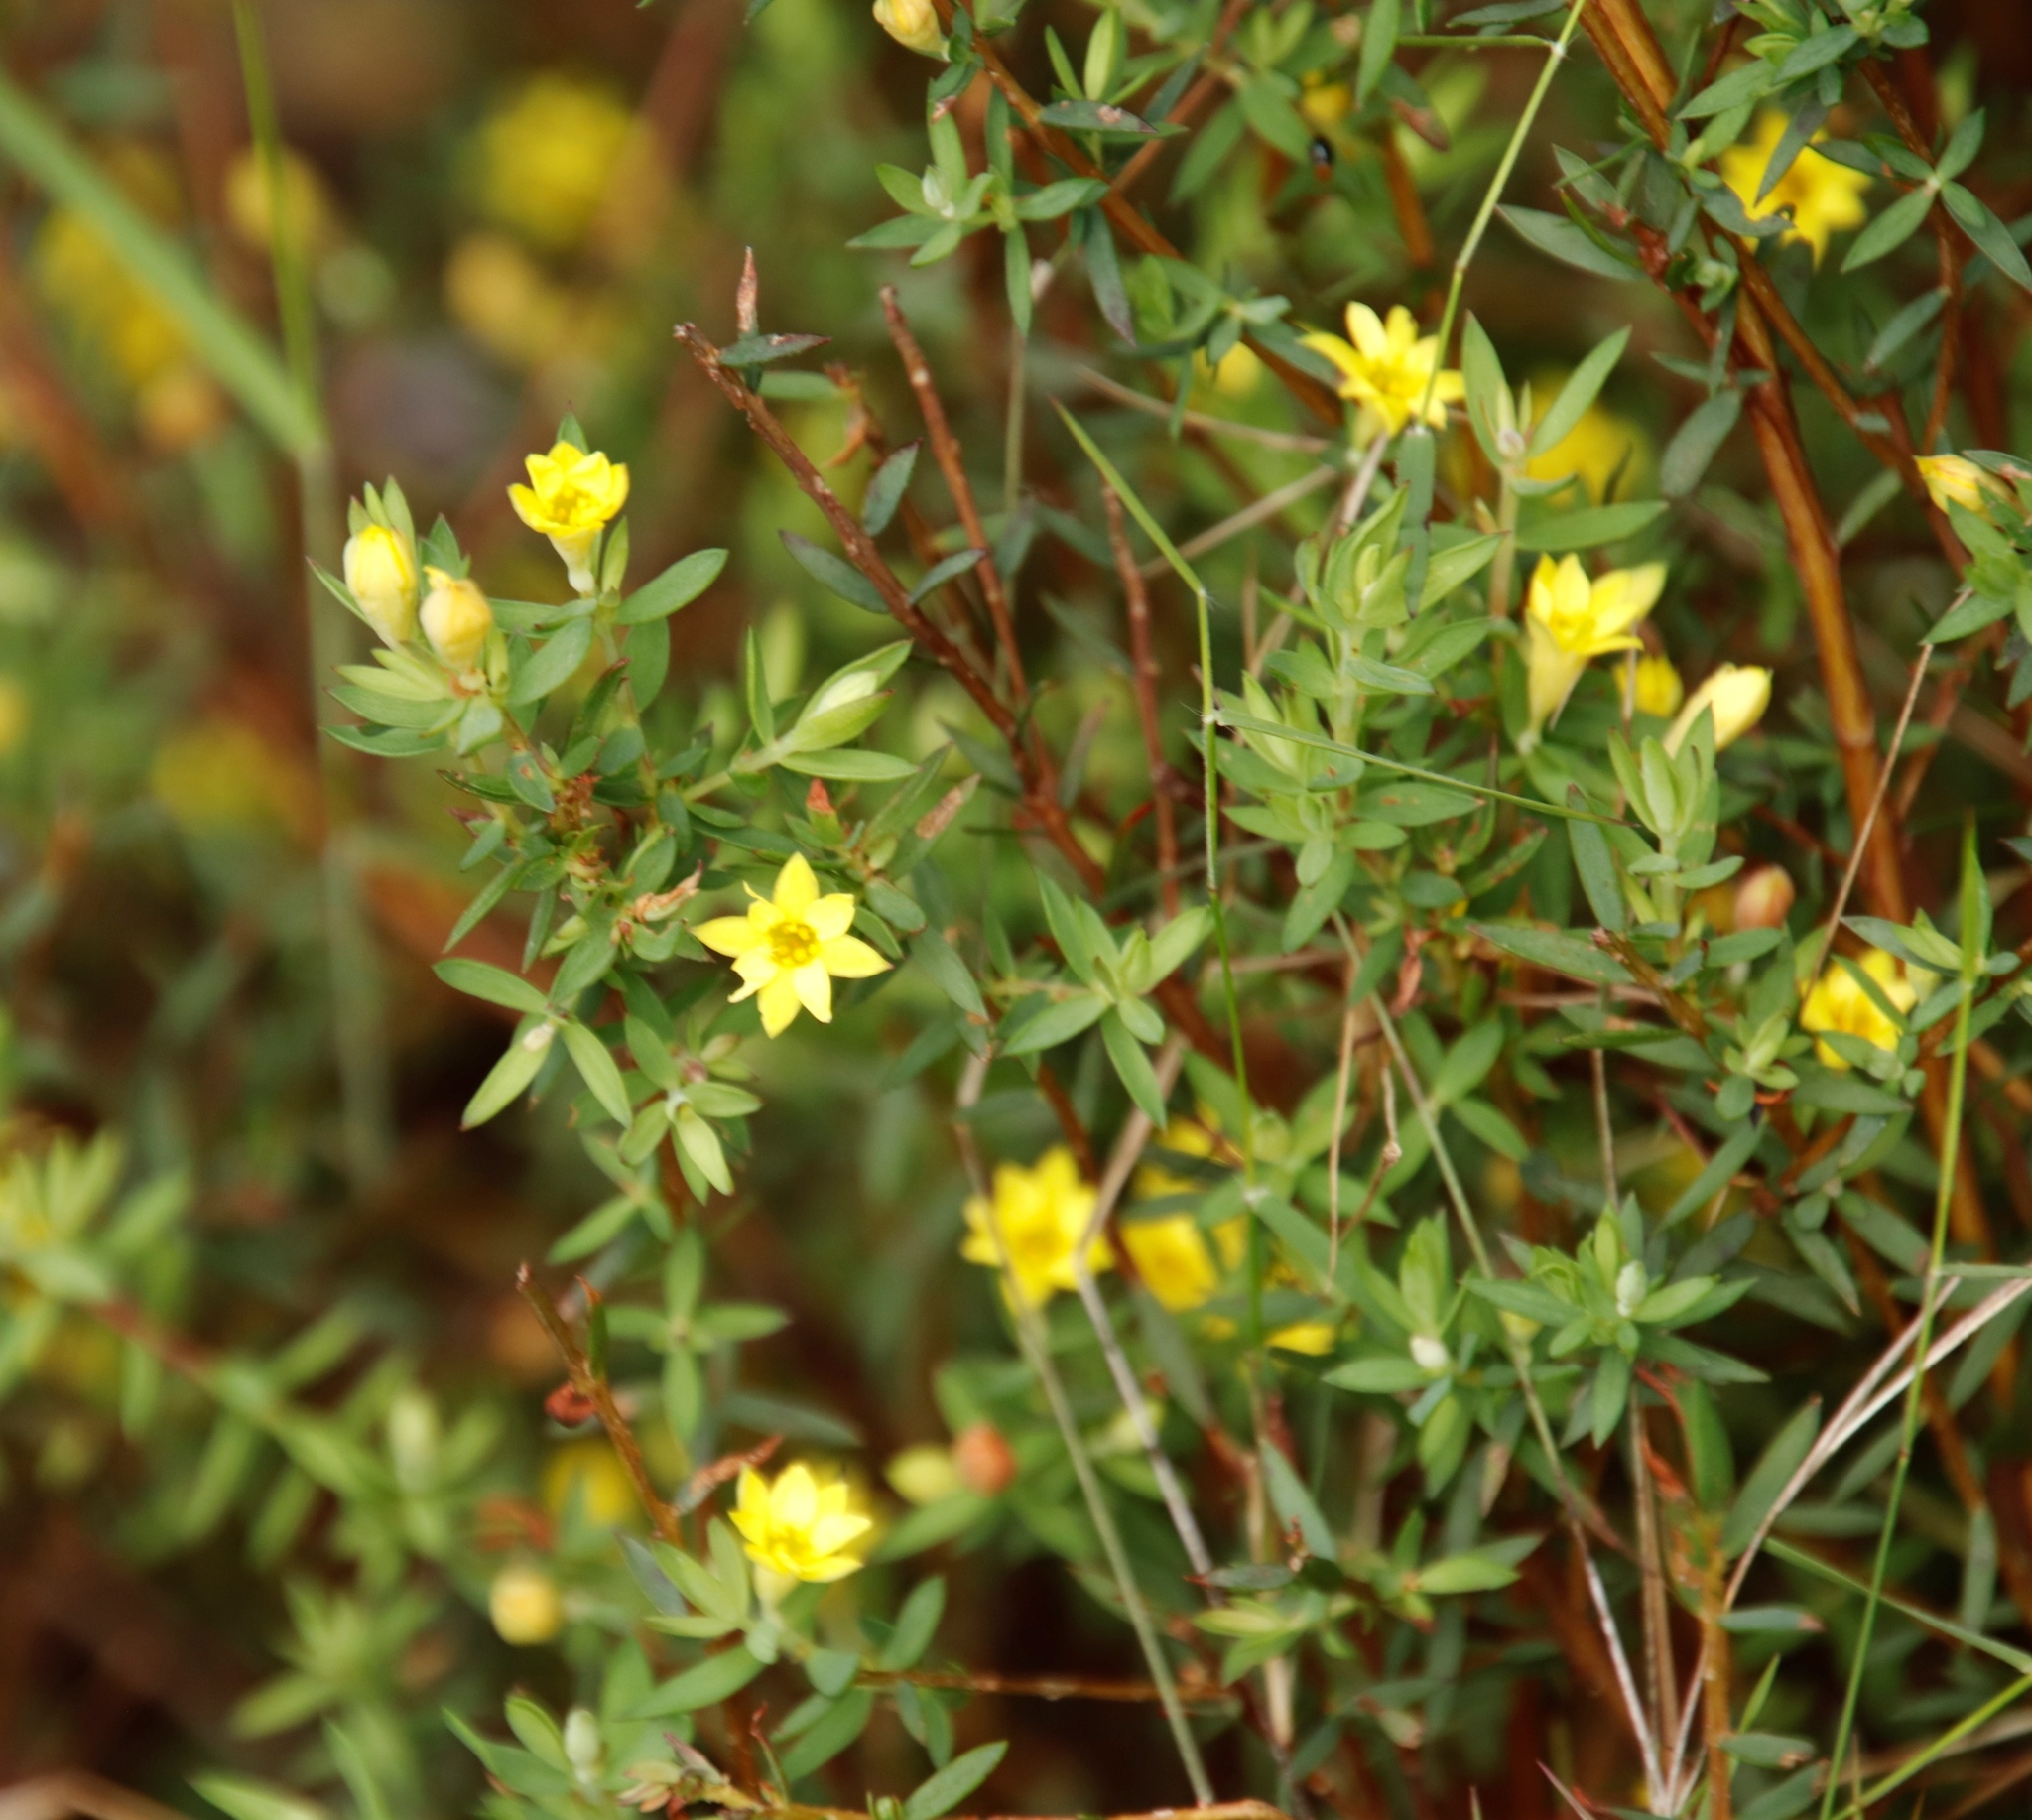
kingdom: Plantae
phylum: Tracheophyta
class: Magnoliopsida
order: Malvales
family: Thymelaeaceae
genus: Gnidia
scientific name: Gnidia juniperifolia
